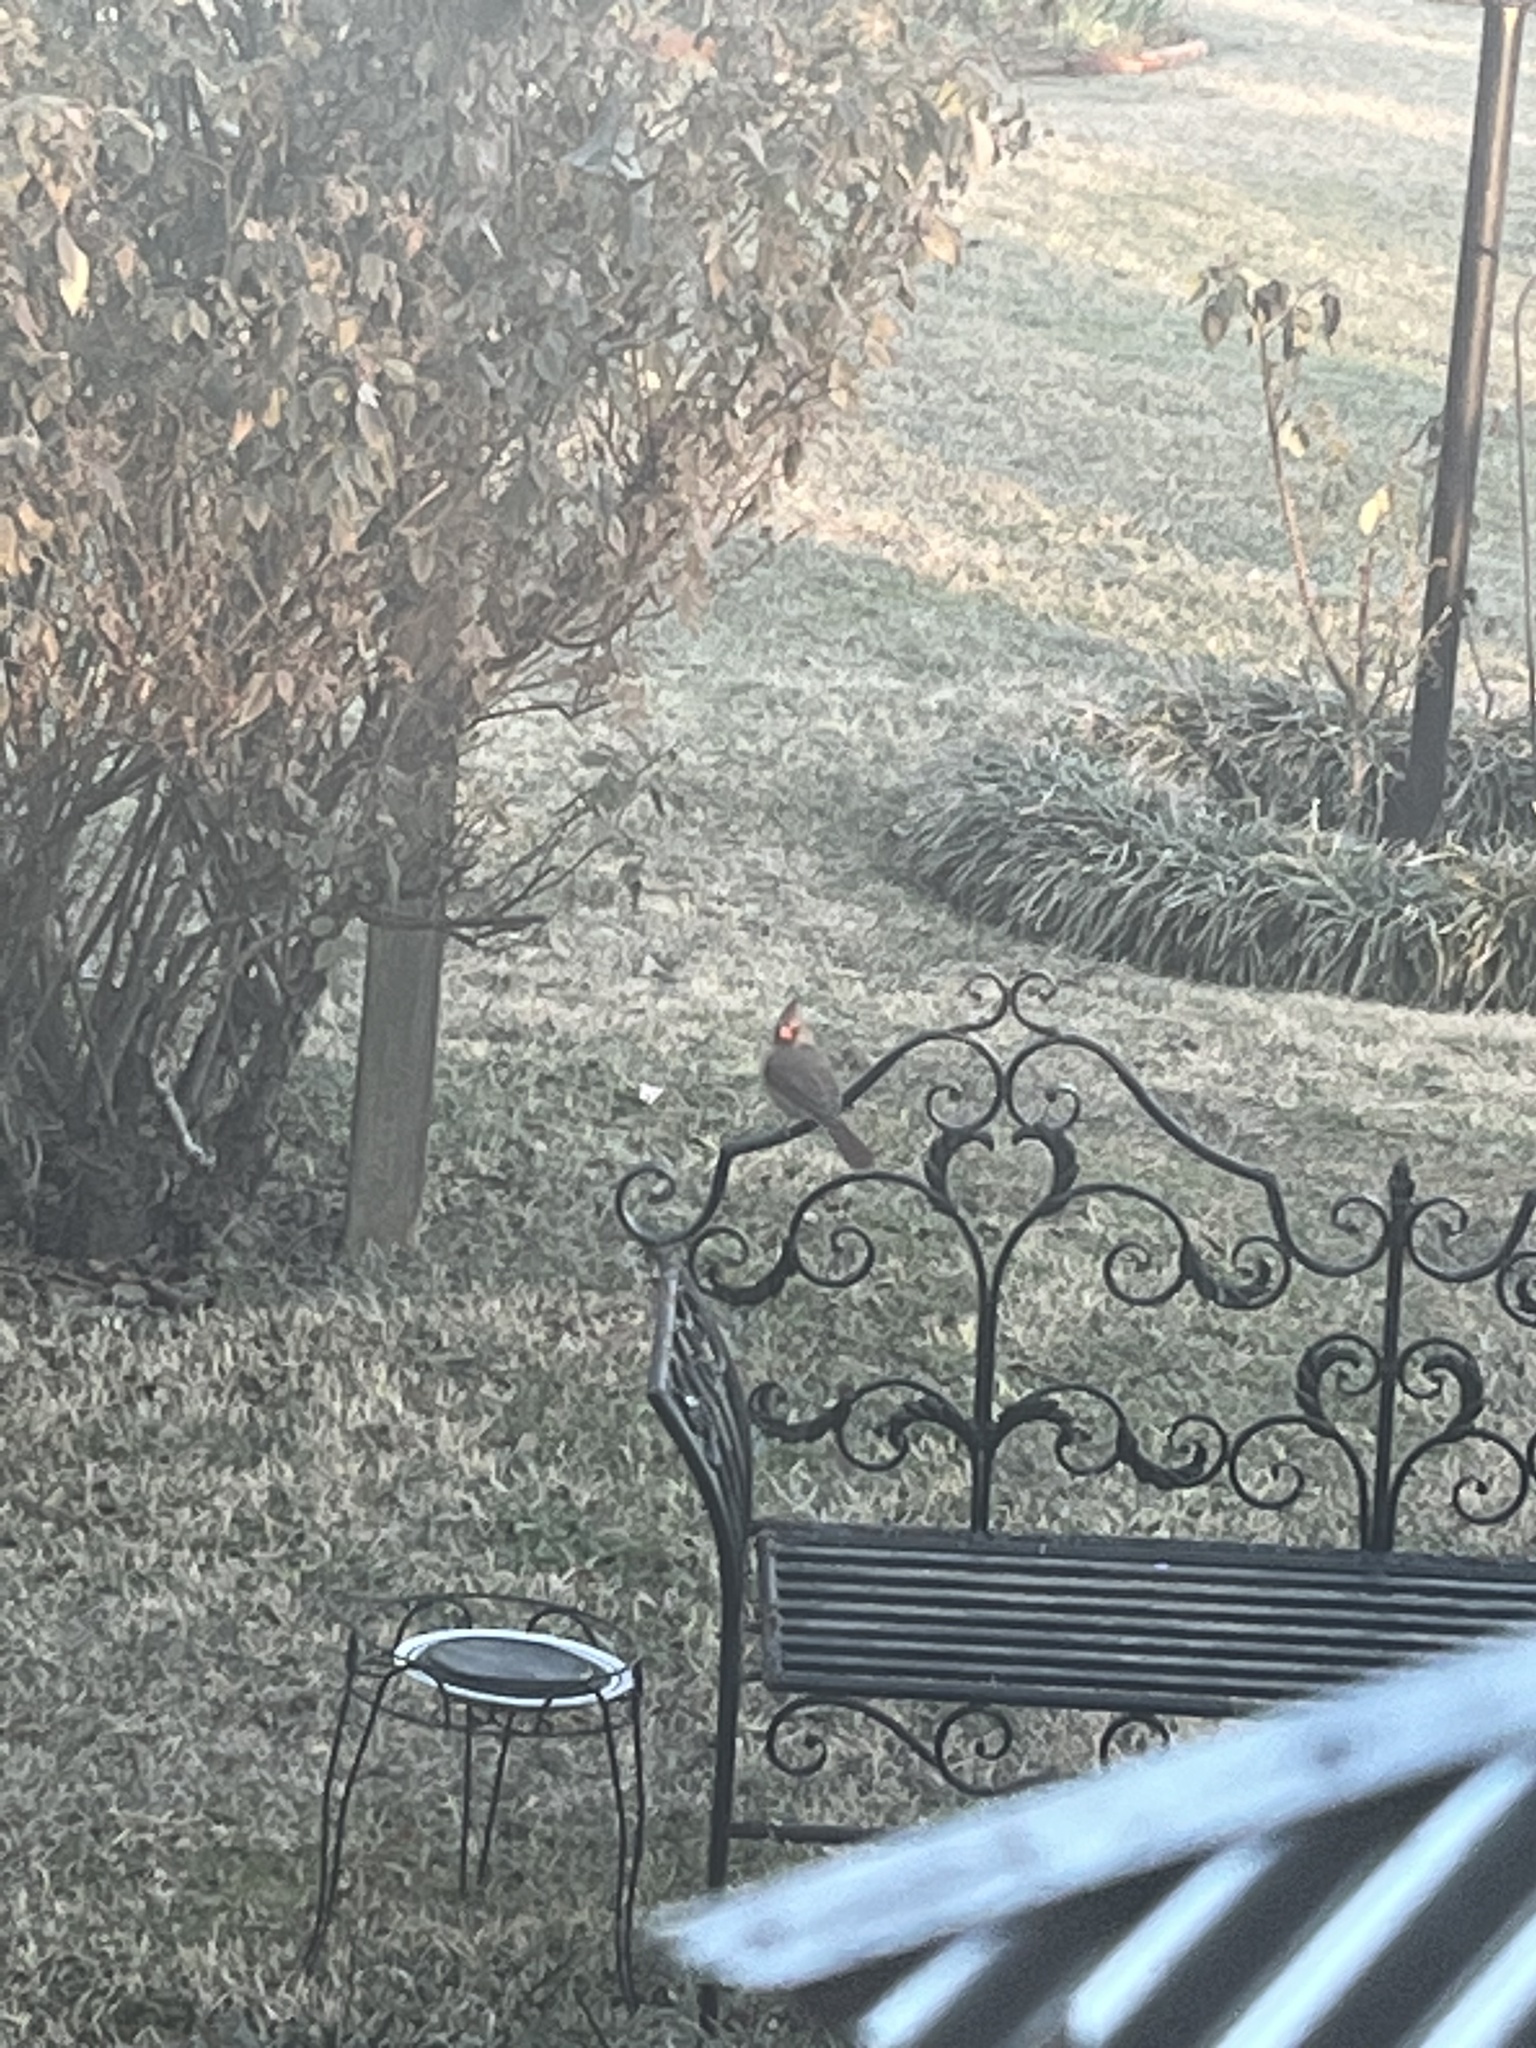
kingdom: Animalia
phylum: Chordata
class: Aves
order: Passeriformes
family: Cardinalidae
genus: Cardinalis
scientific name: Cardinalis cardinalis
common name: Northern cardinal
